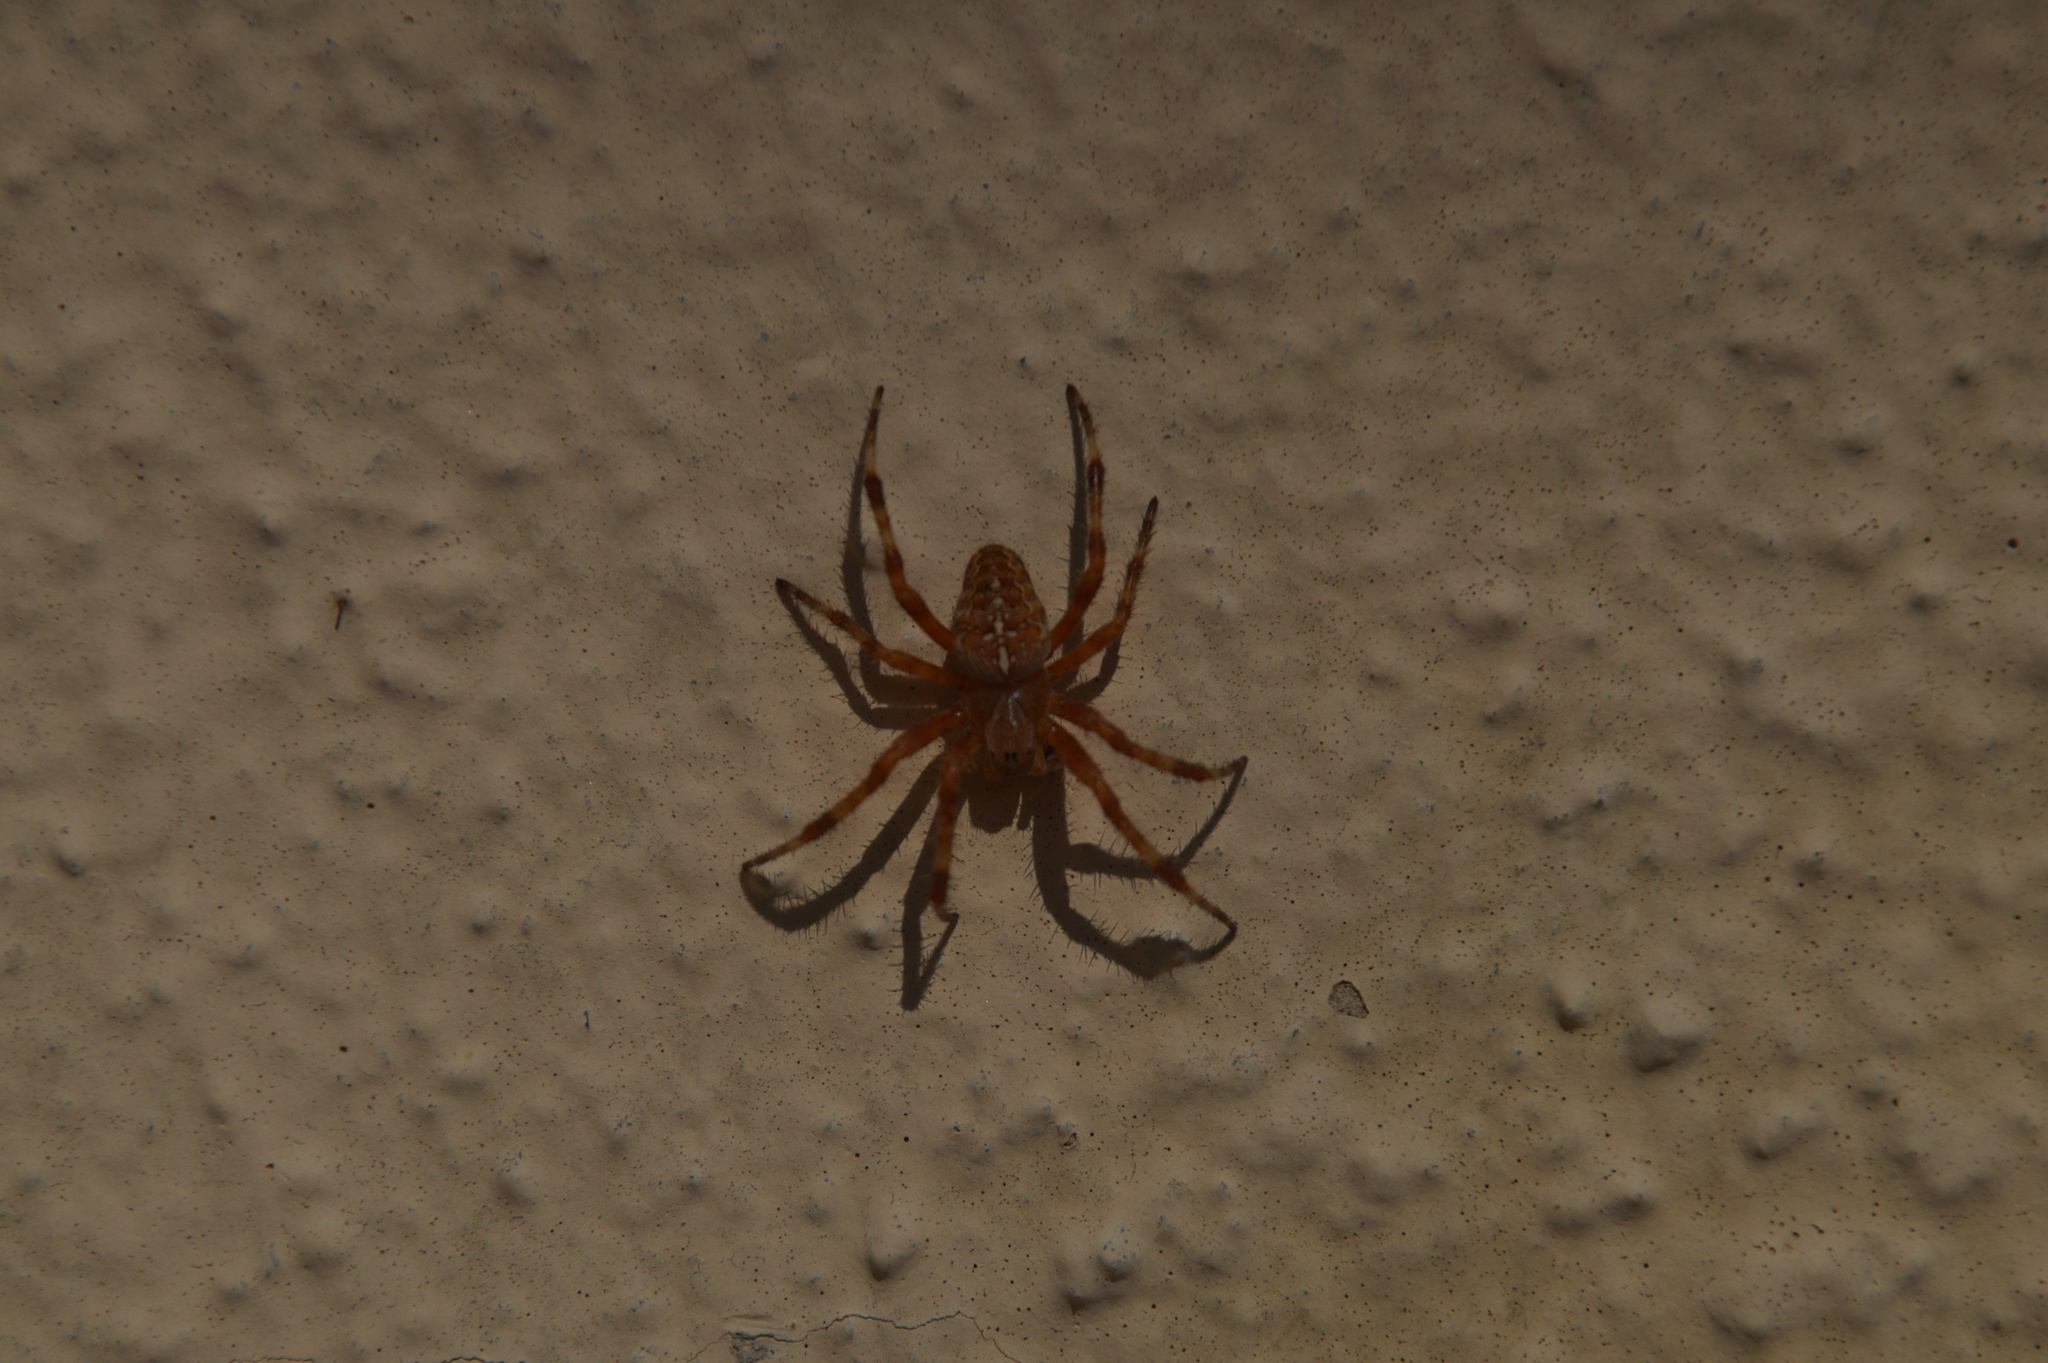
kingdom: Animalia
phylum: Arthropoda
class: Arachnida
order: Araneae
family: Araneidae
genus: Araneus
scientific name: Araneus diadematus
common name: Cross orbweaver
